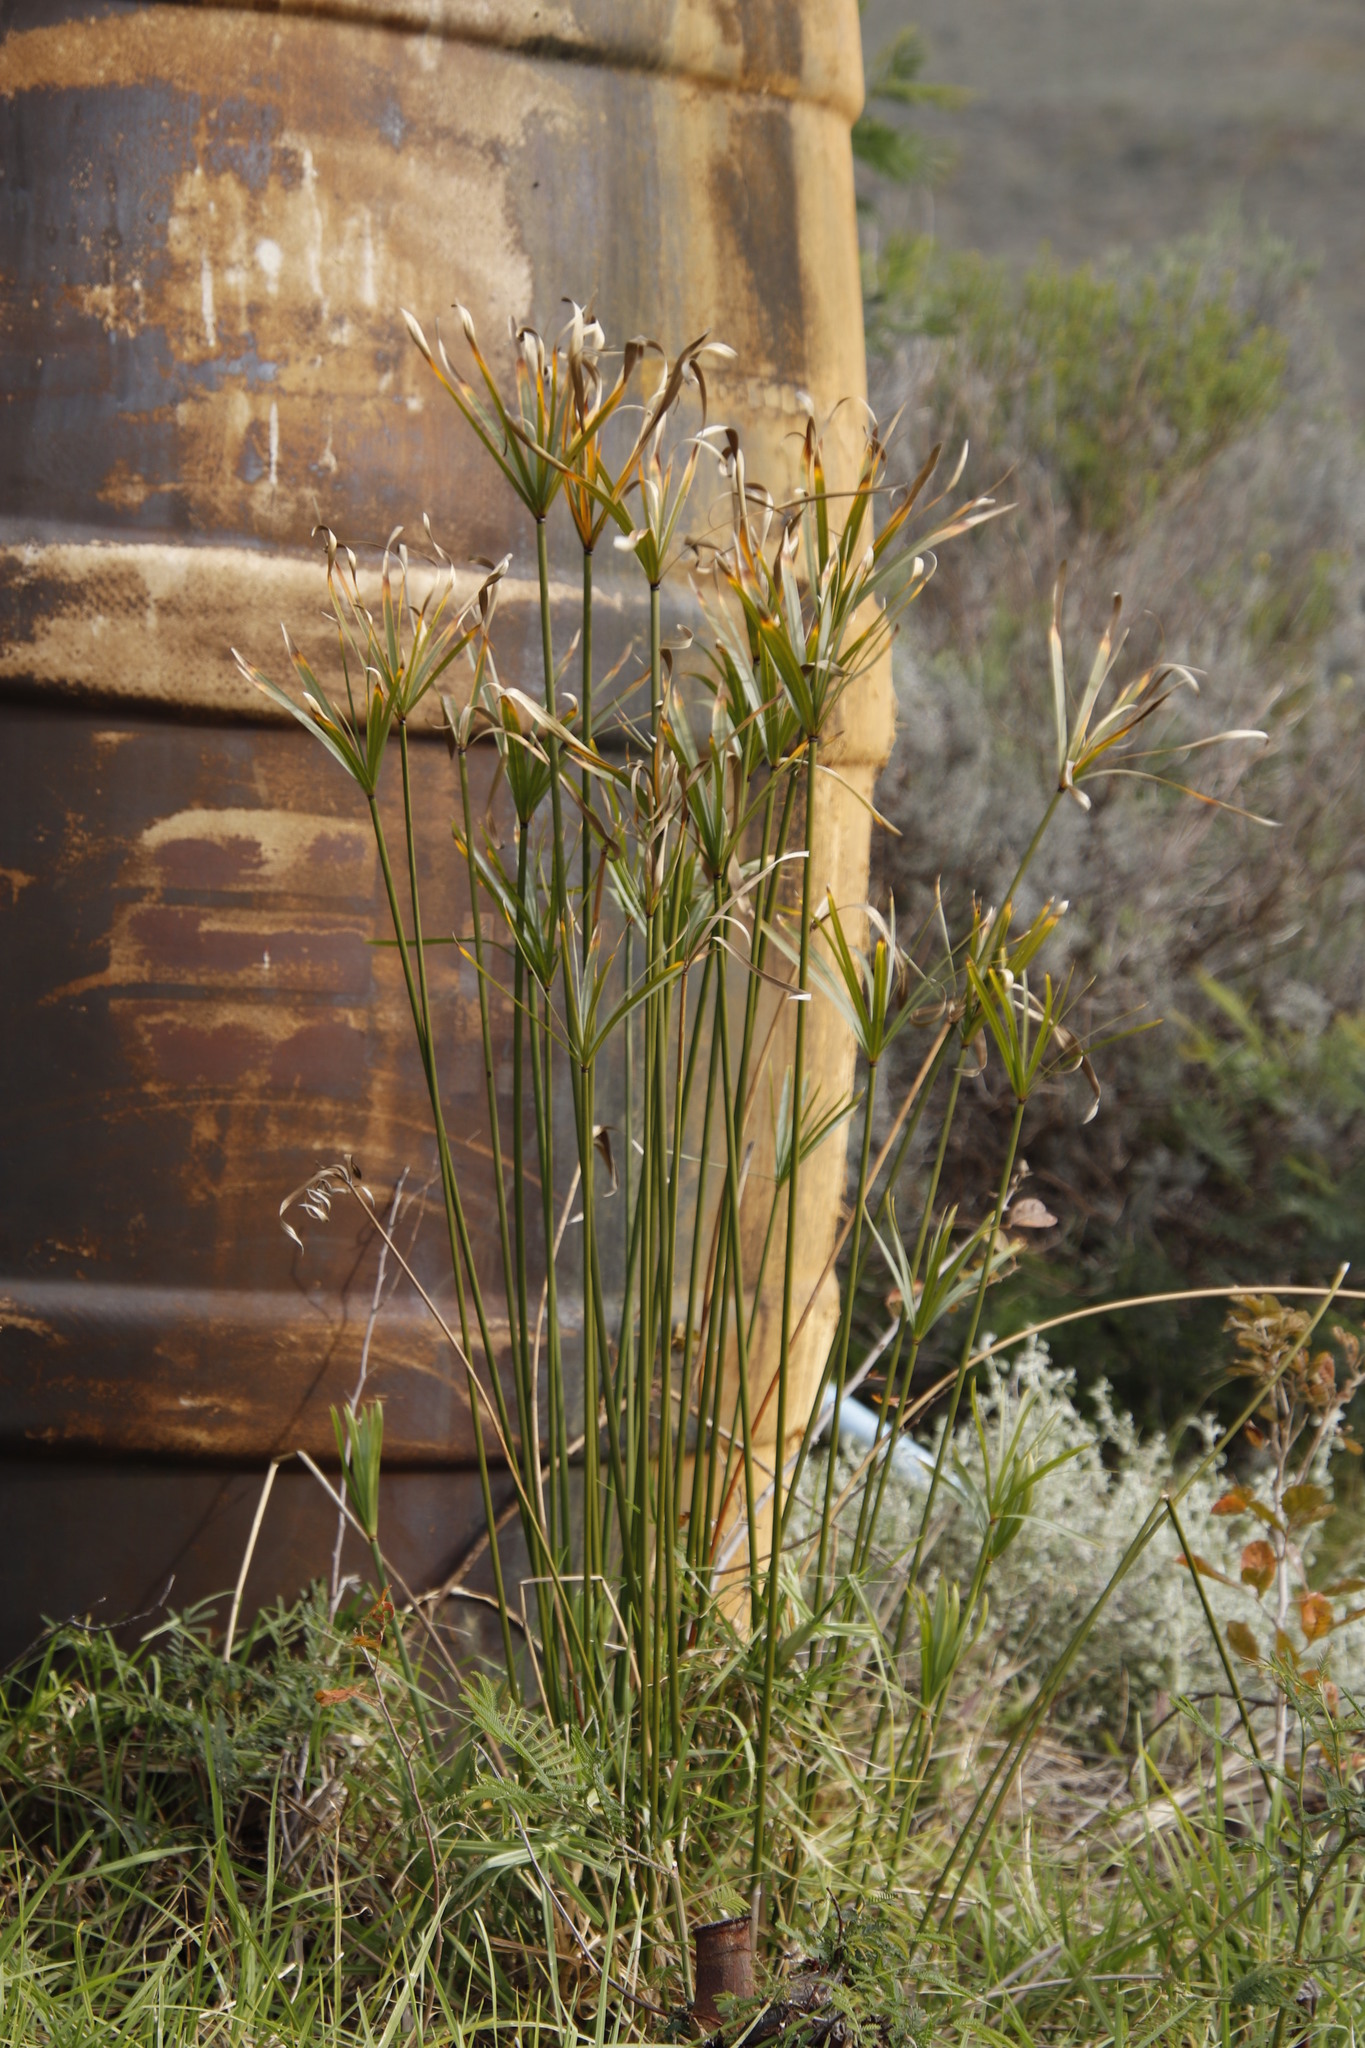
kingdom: Plantae
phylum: Tracheophyta
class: Liliopsida
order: Poales
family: Cyperaceae
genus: Cyperus
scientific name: Cyperus textilis
